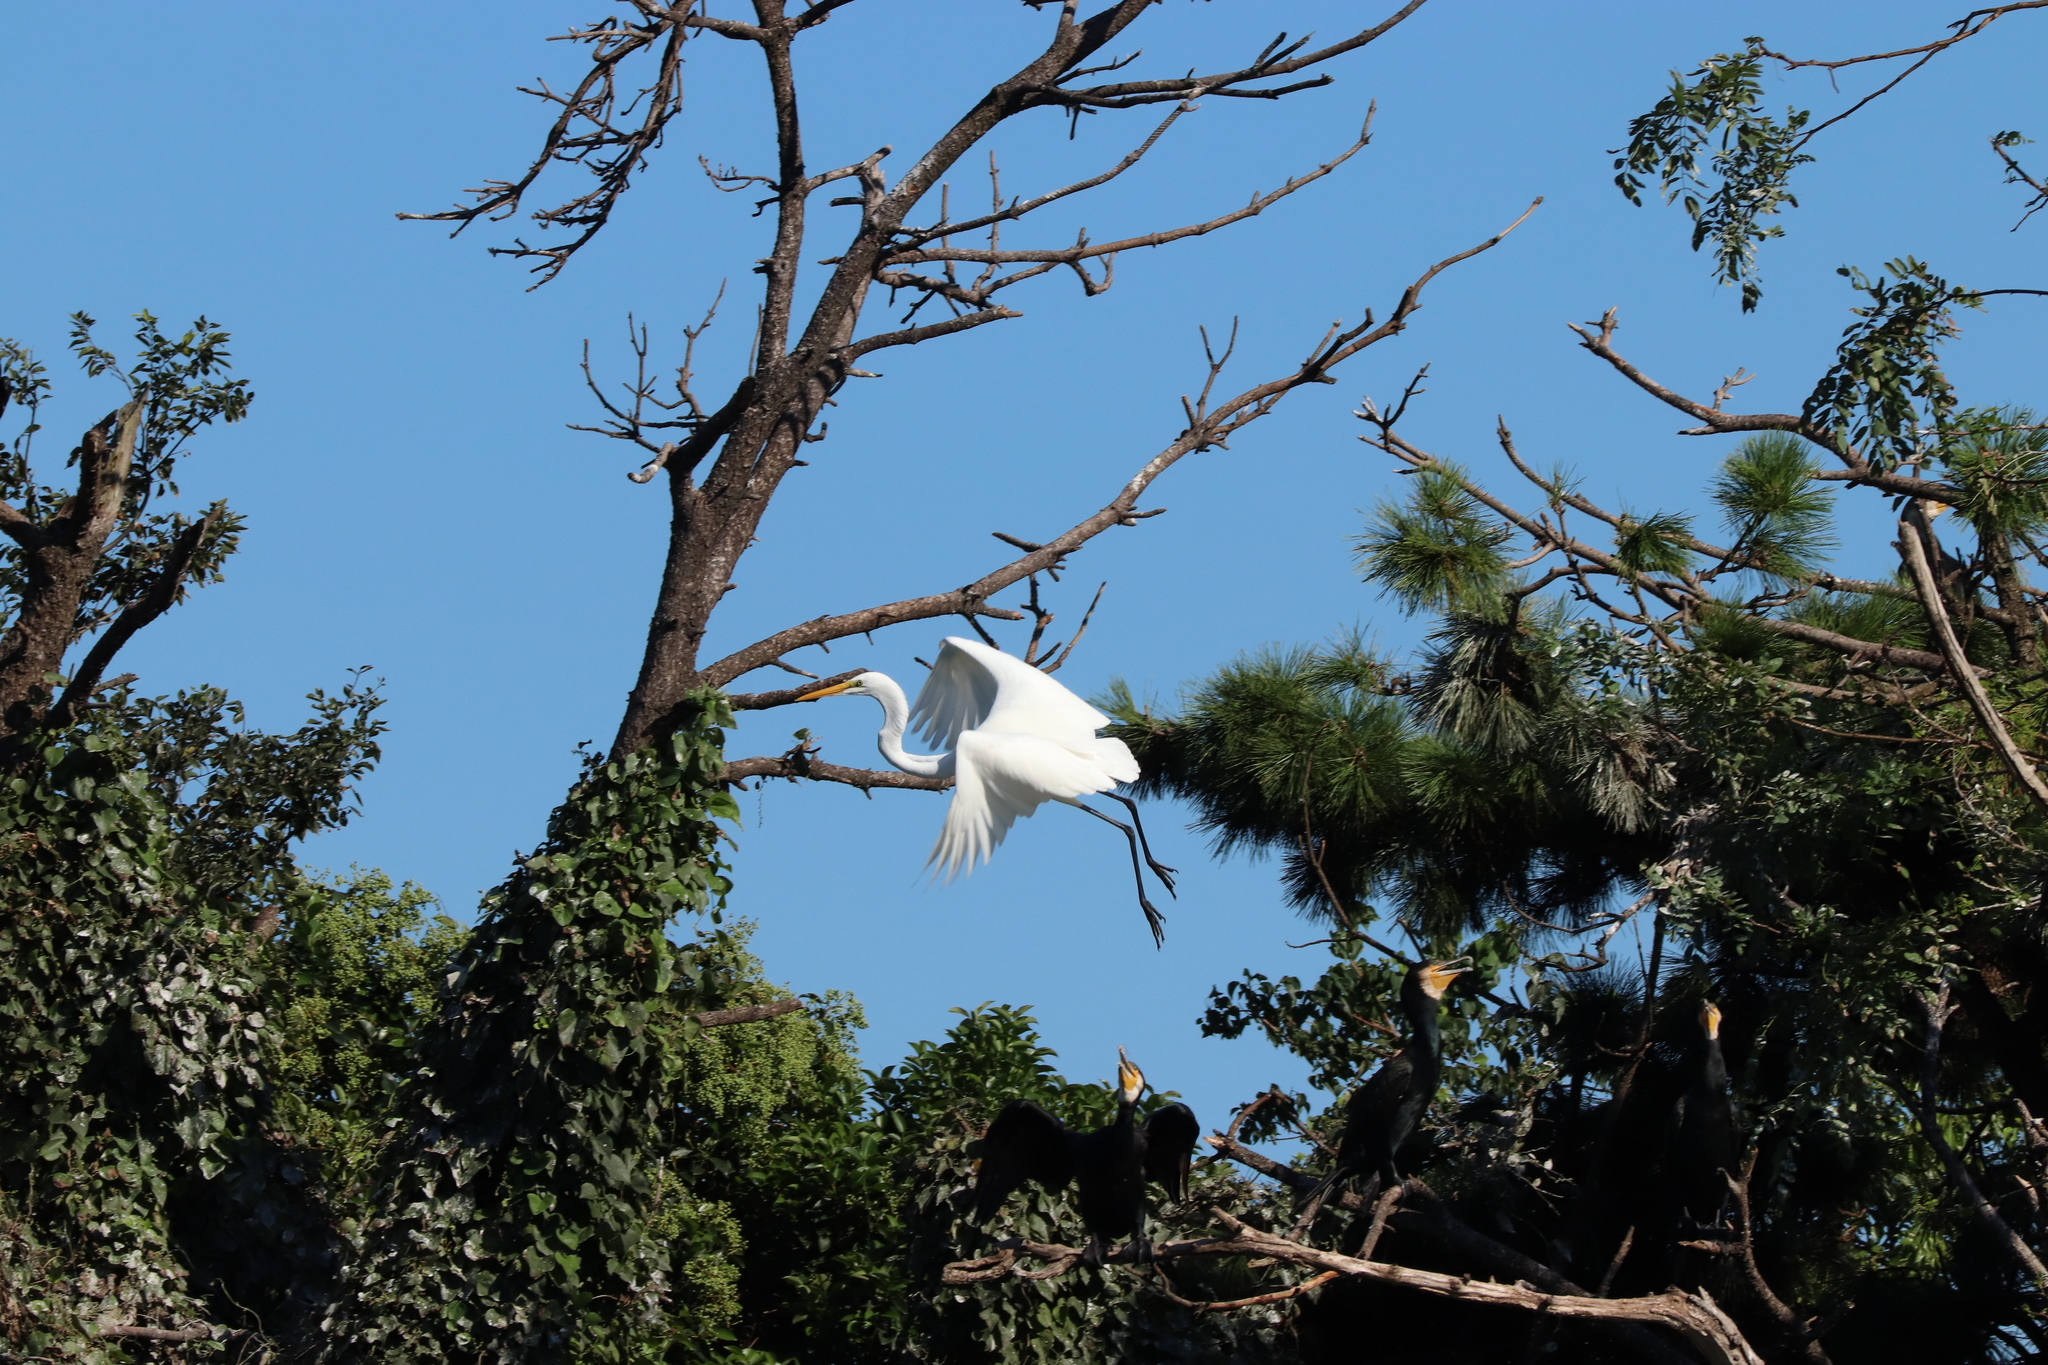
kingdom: Animalia
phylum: Chordata
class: Aves
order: Pelecaniformes
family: Ardeidae
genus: Ardea
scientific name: Ardea alba
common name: Great egret
